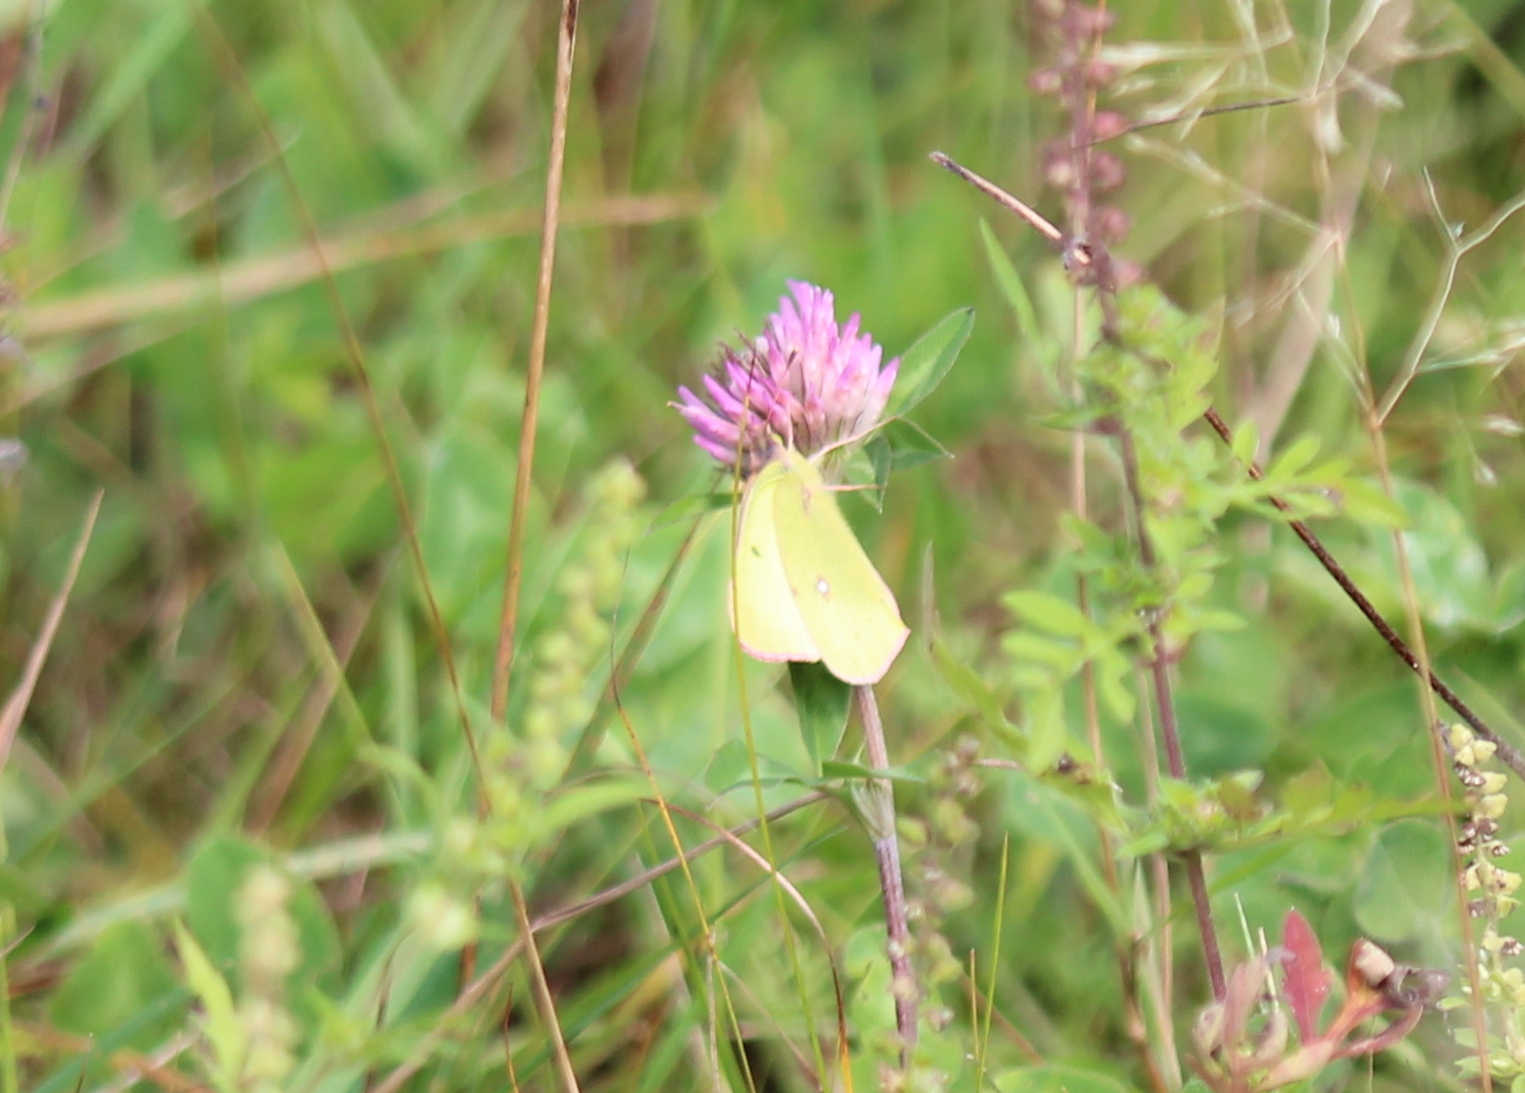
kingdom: Animalia
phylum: Arthropoda
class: Insecta
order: Lepidoptera
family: Pieridae
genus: Colias
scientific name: Colias philodice
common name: Clouded sulphur
